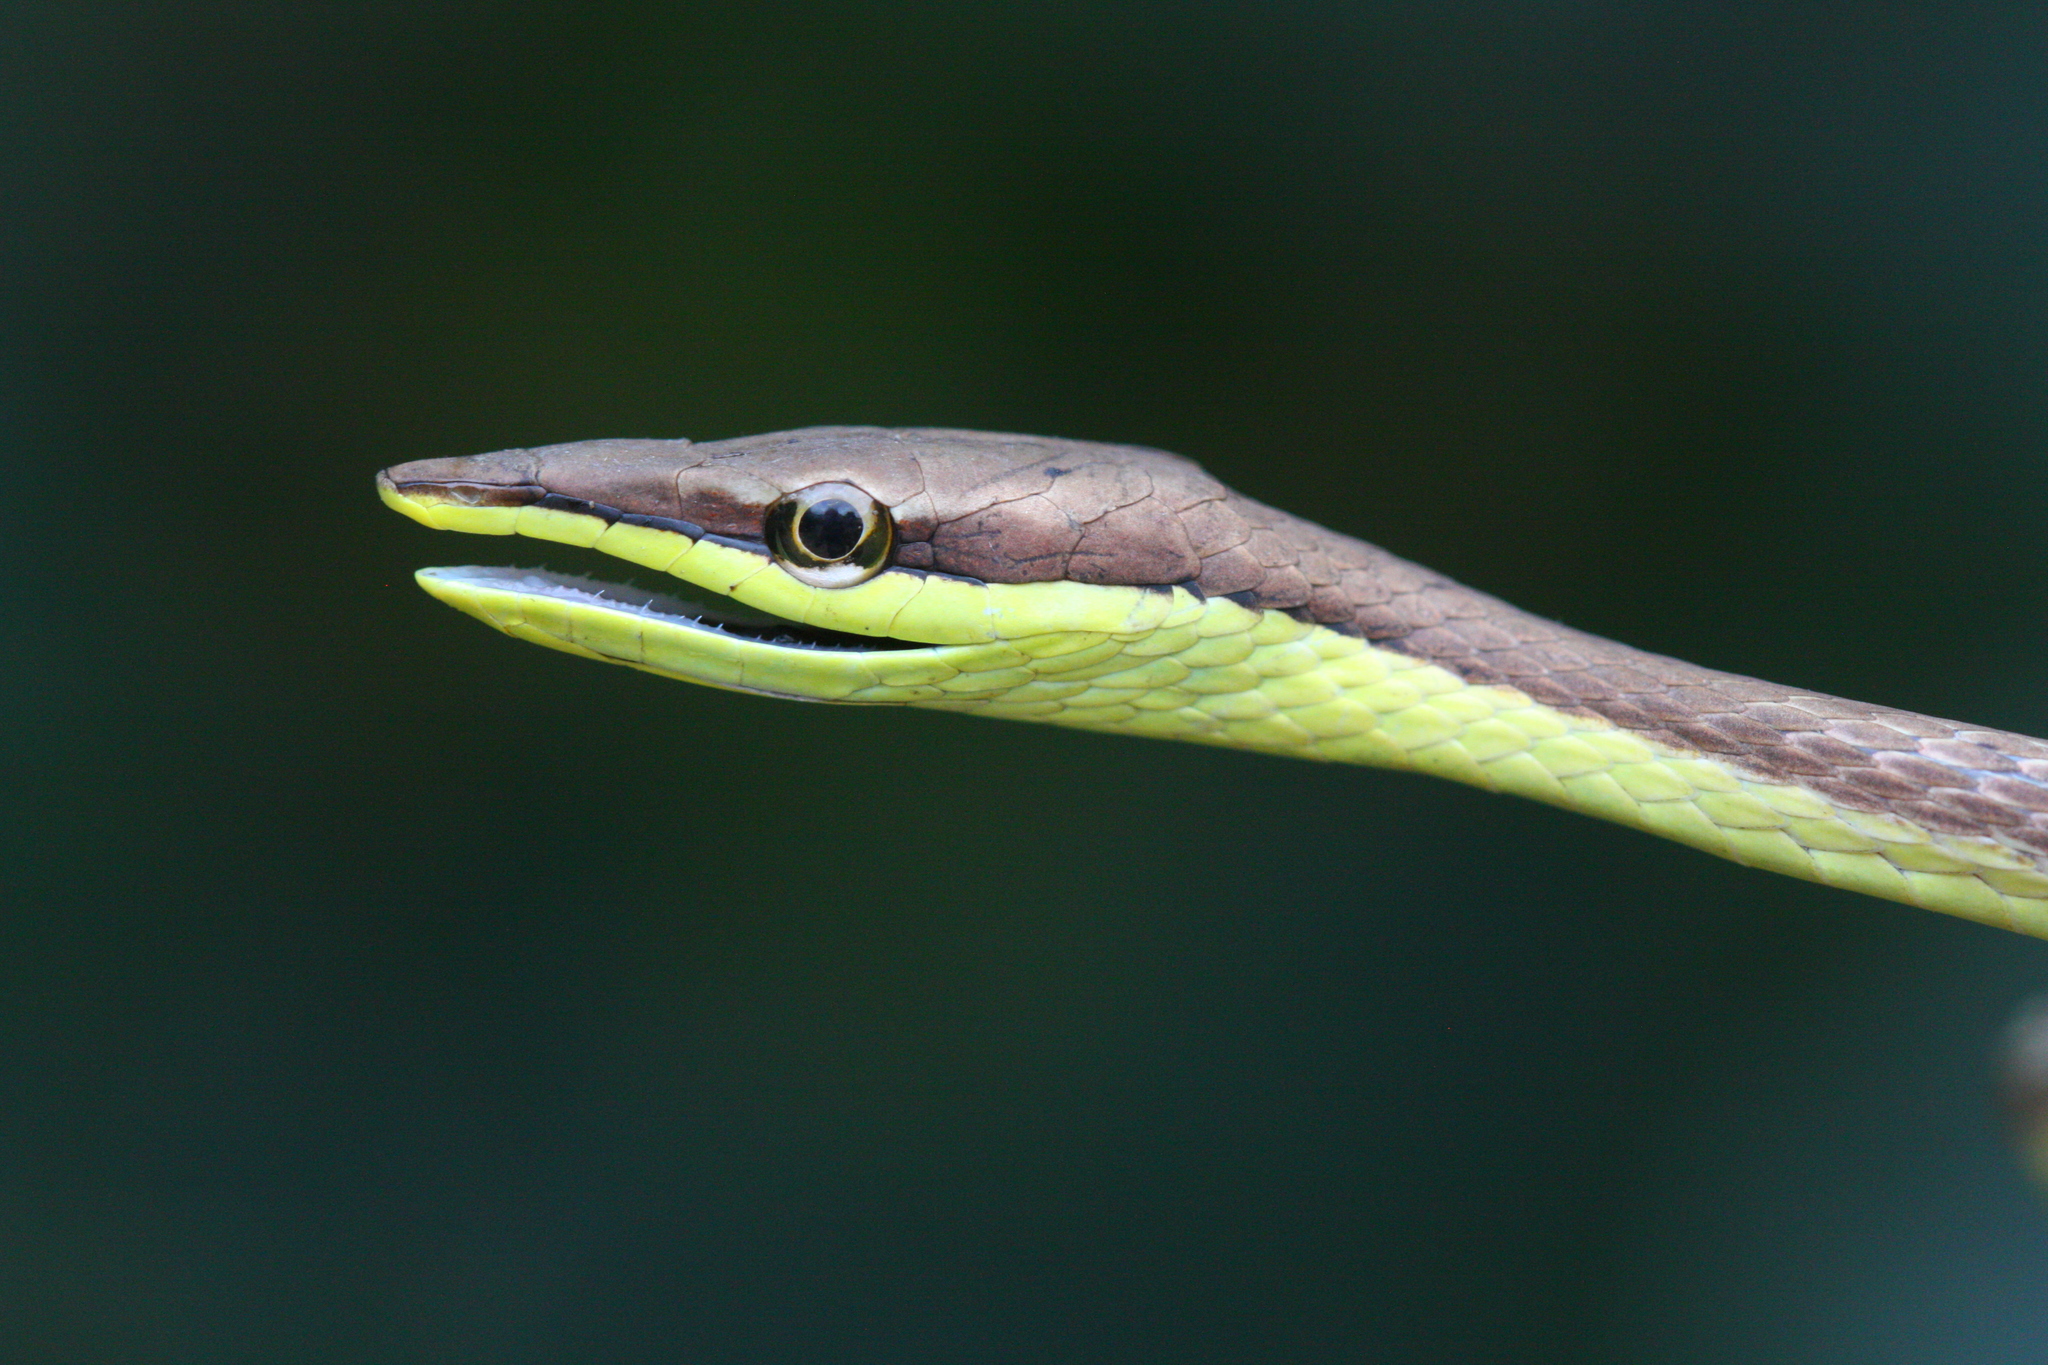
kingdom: Animalia
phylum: Chordata
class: Squamata
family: Colubridae
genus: Oxybelis
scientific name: Oxybelis microphthalmus
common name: Thrornscrub vine snake
